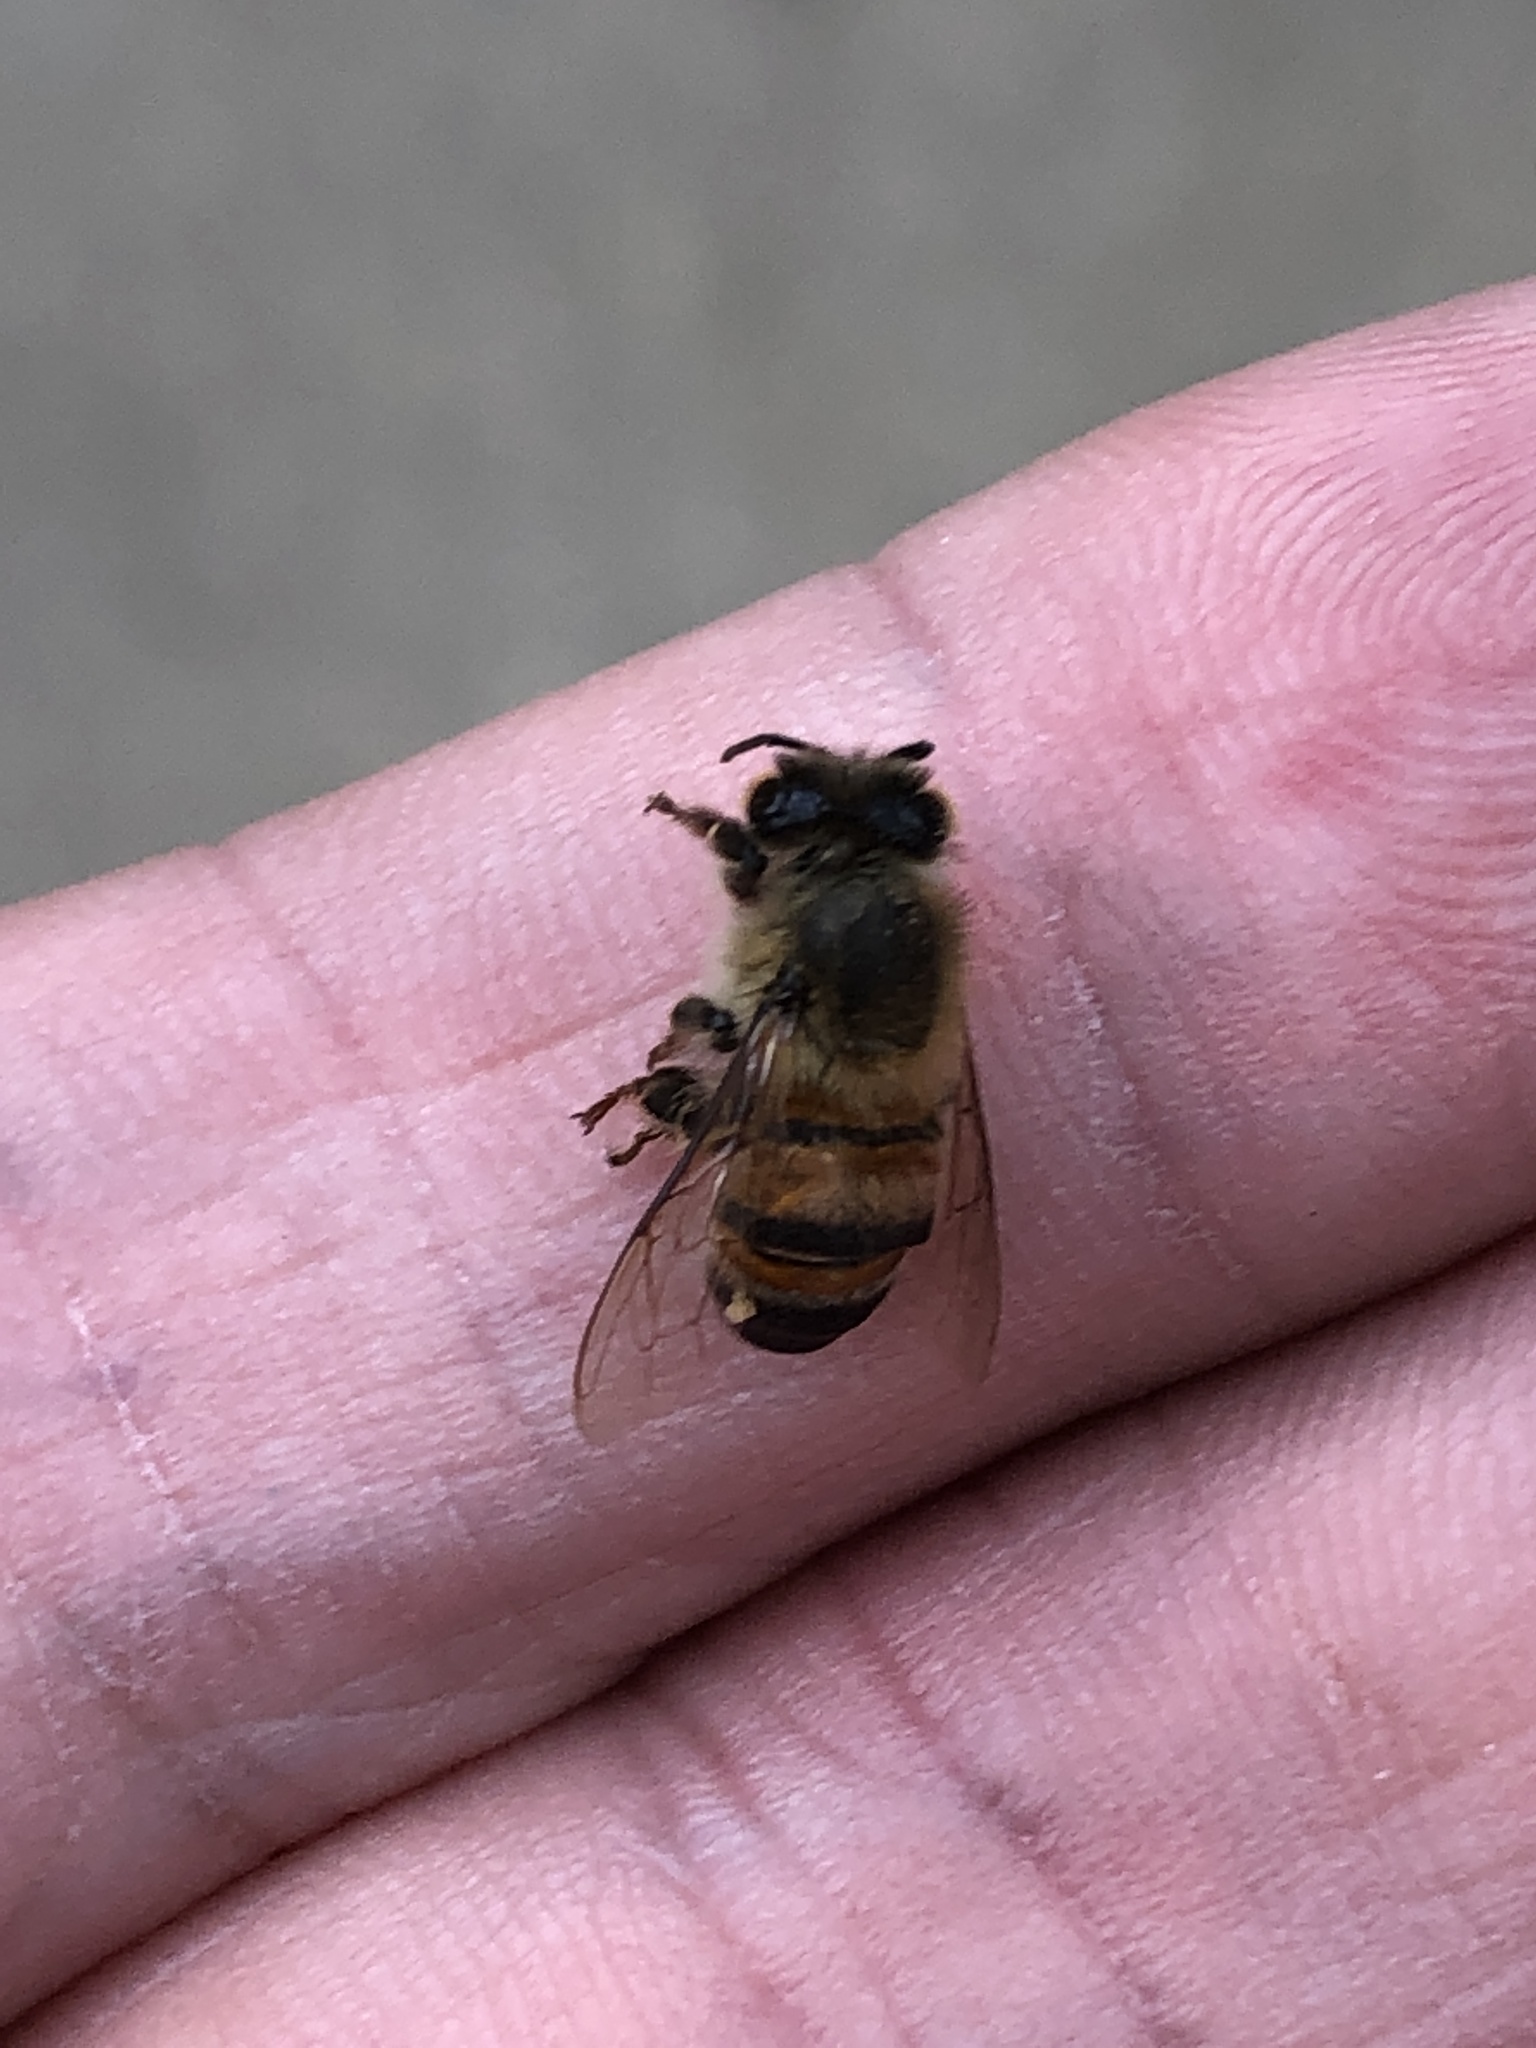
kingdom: Animalia
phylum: Arthropoda
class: Insecta
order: Hymenoptera
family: Apidae
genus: Apis
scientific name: Apis mellifera
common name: Honey bee
